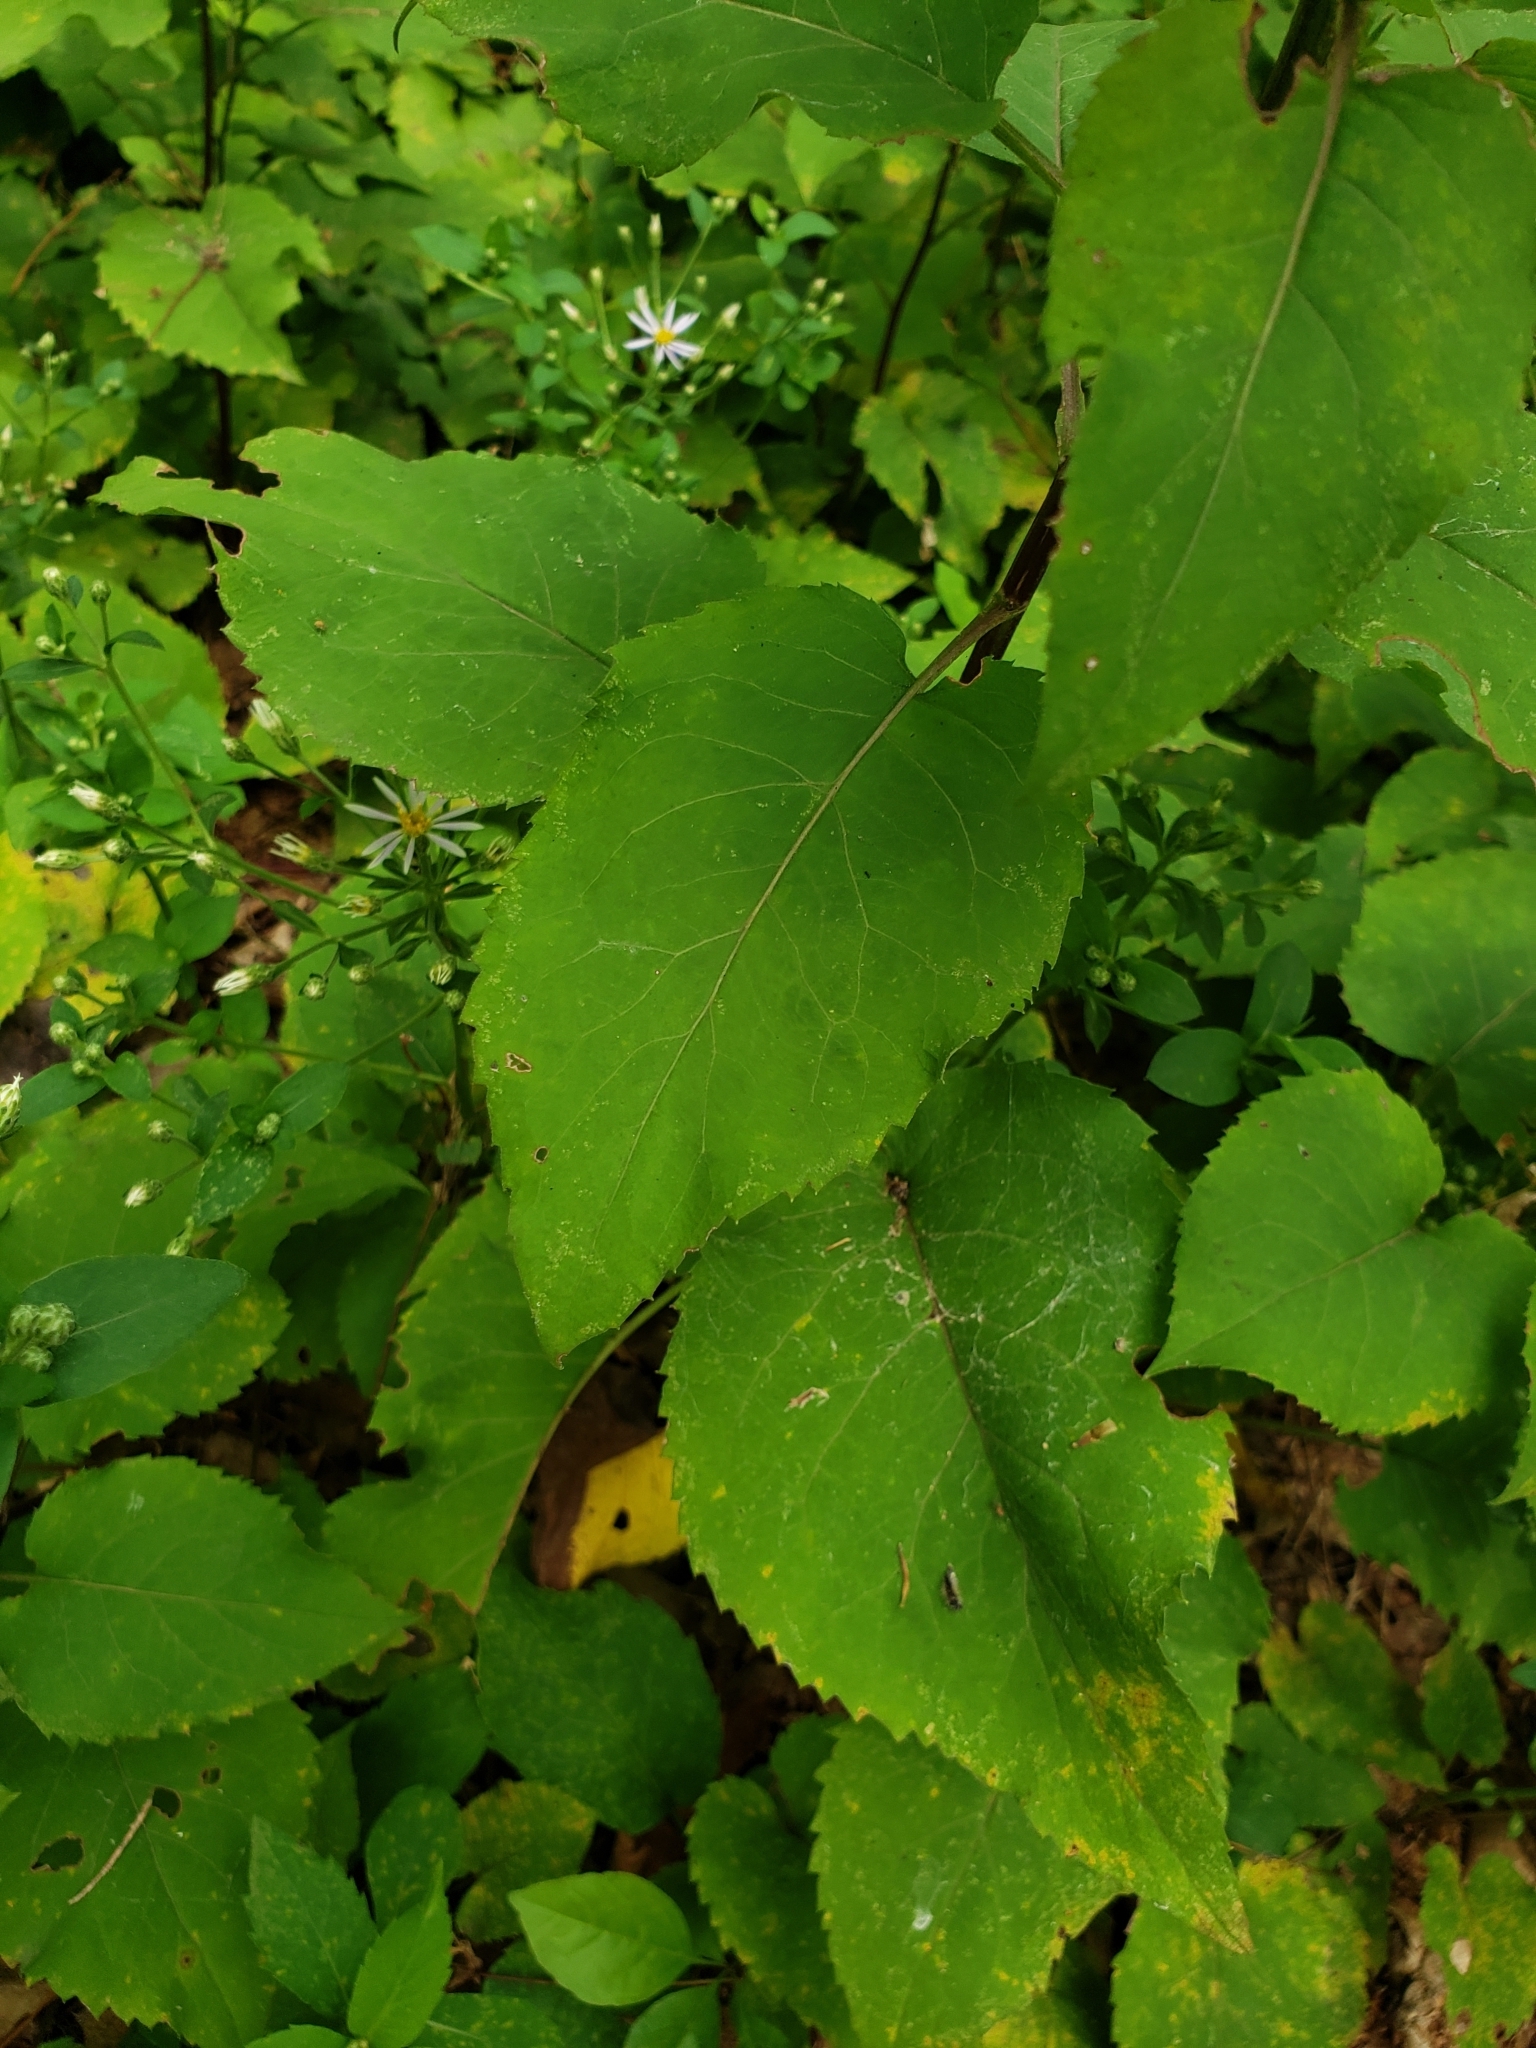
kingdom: Plantae
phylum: Tracheophyta
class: Magnoliopsida
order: Asterales
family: Asteraceae
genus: Eurybia
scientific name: Eurybia macrophylla
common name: Big-leaved aster
